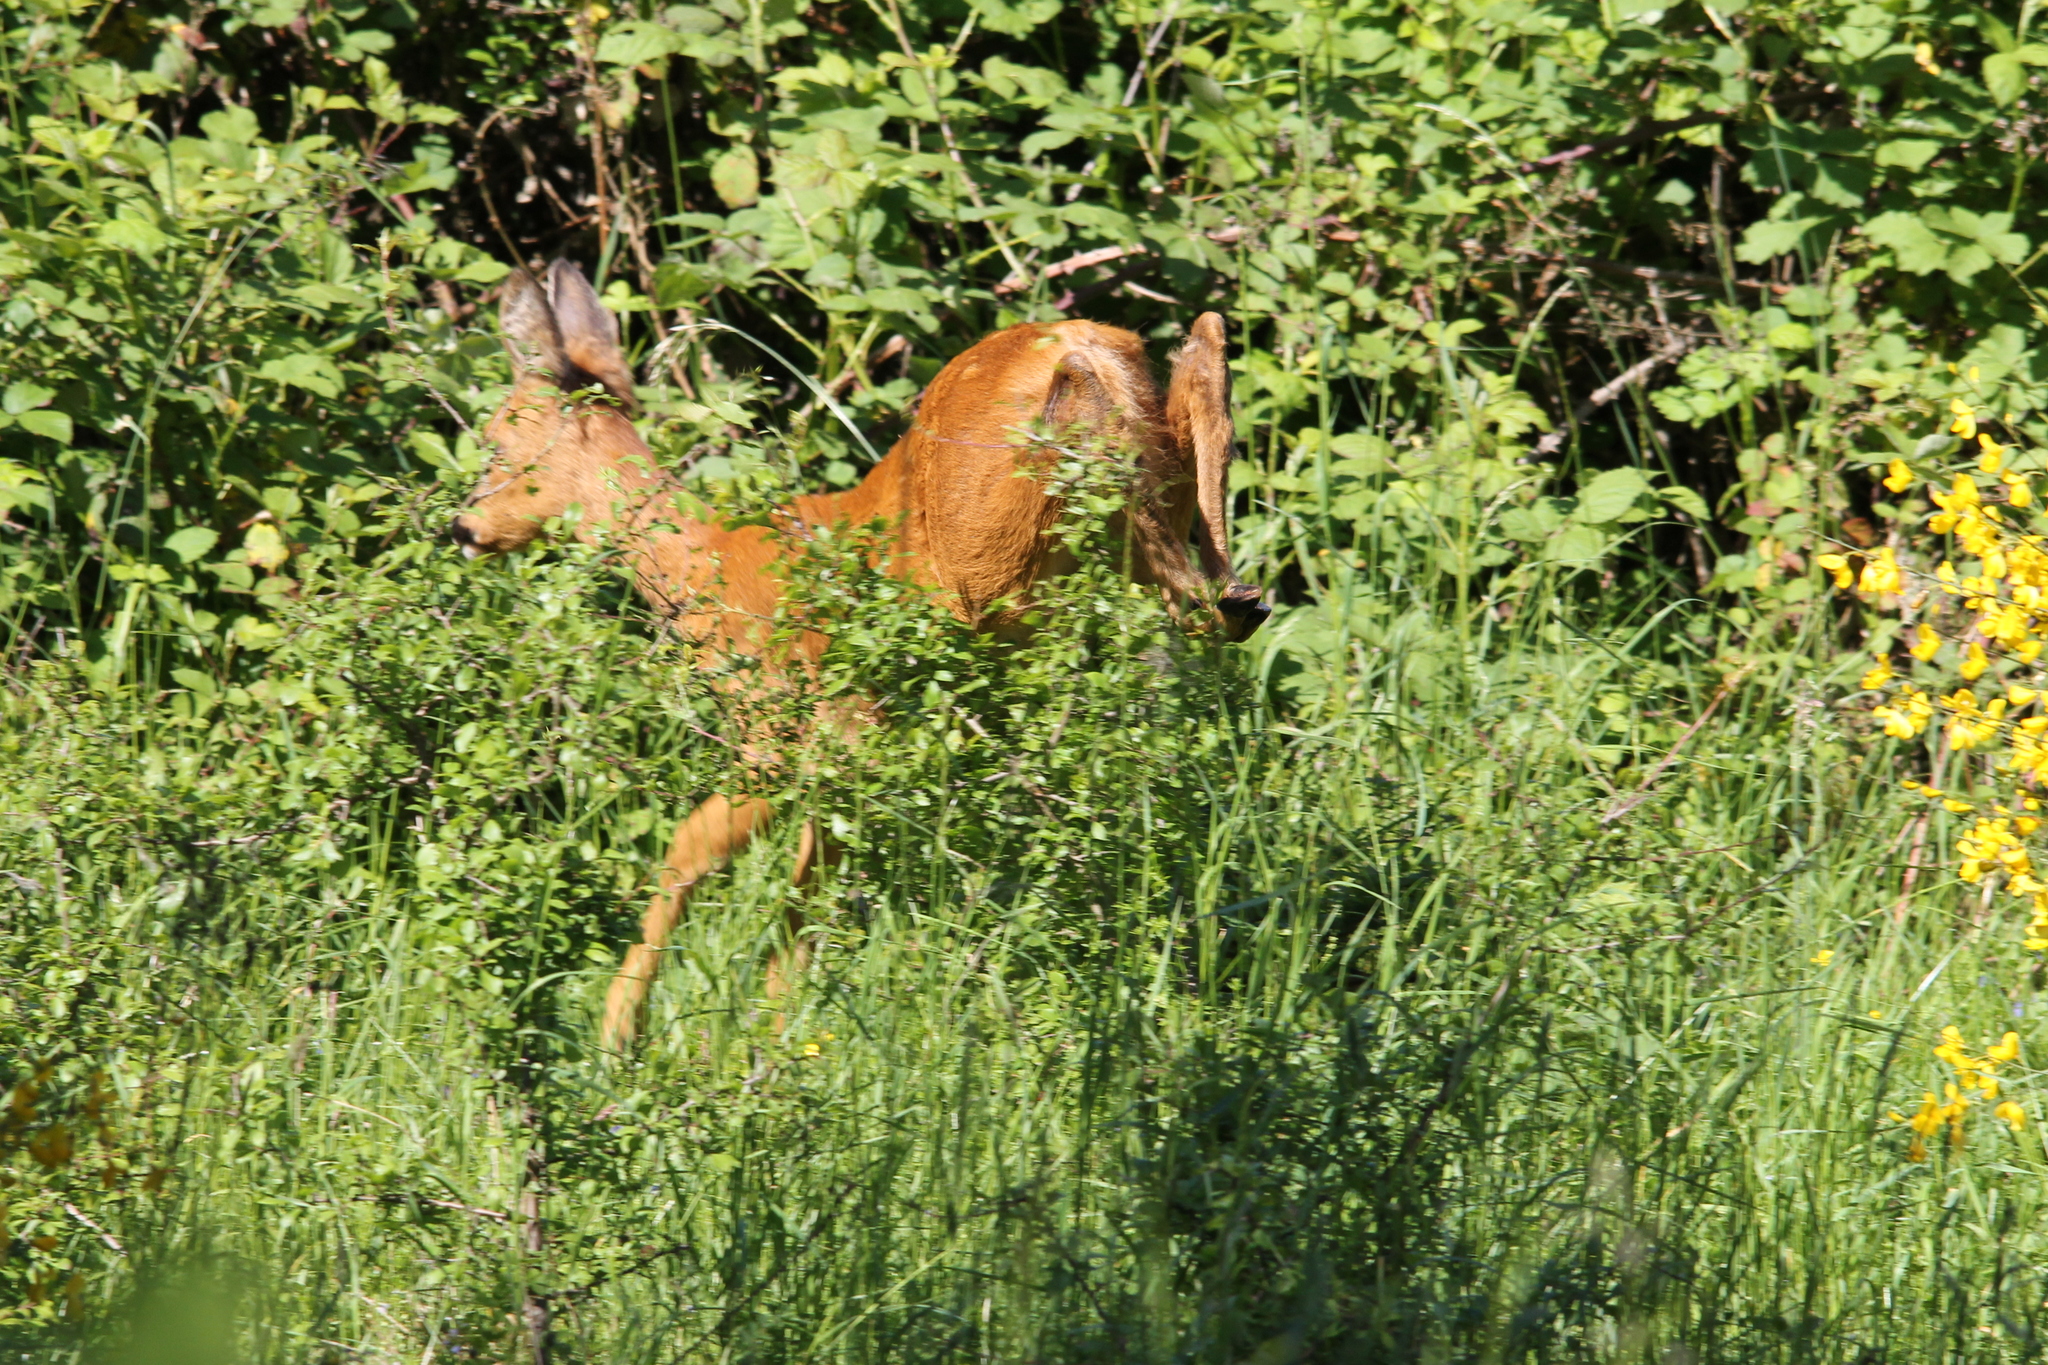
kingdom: Animalia
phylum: Chordata
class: Mammalia
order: Artiodactyla
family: Cervidae
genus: Capreolus
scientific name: Capreolus capreolus
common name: Western roe deer
